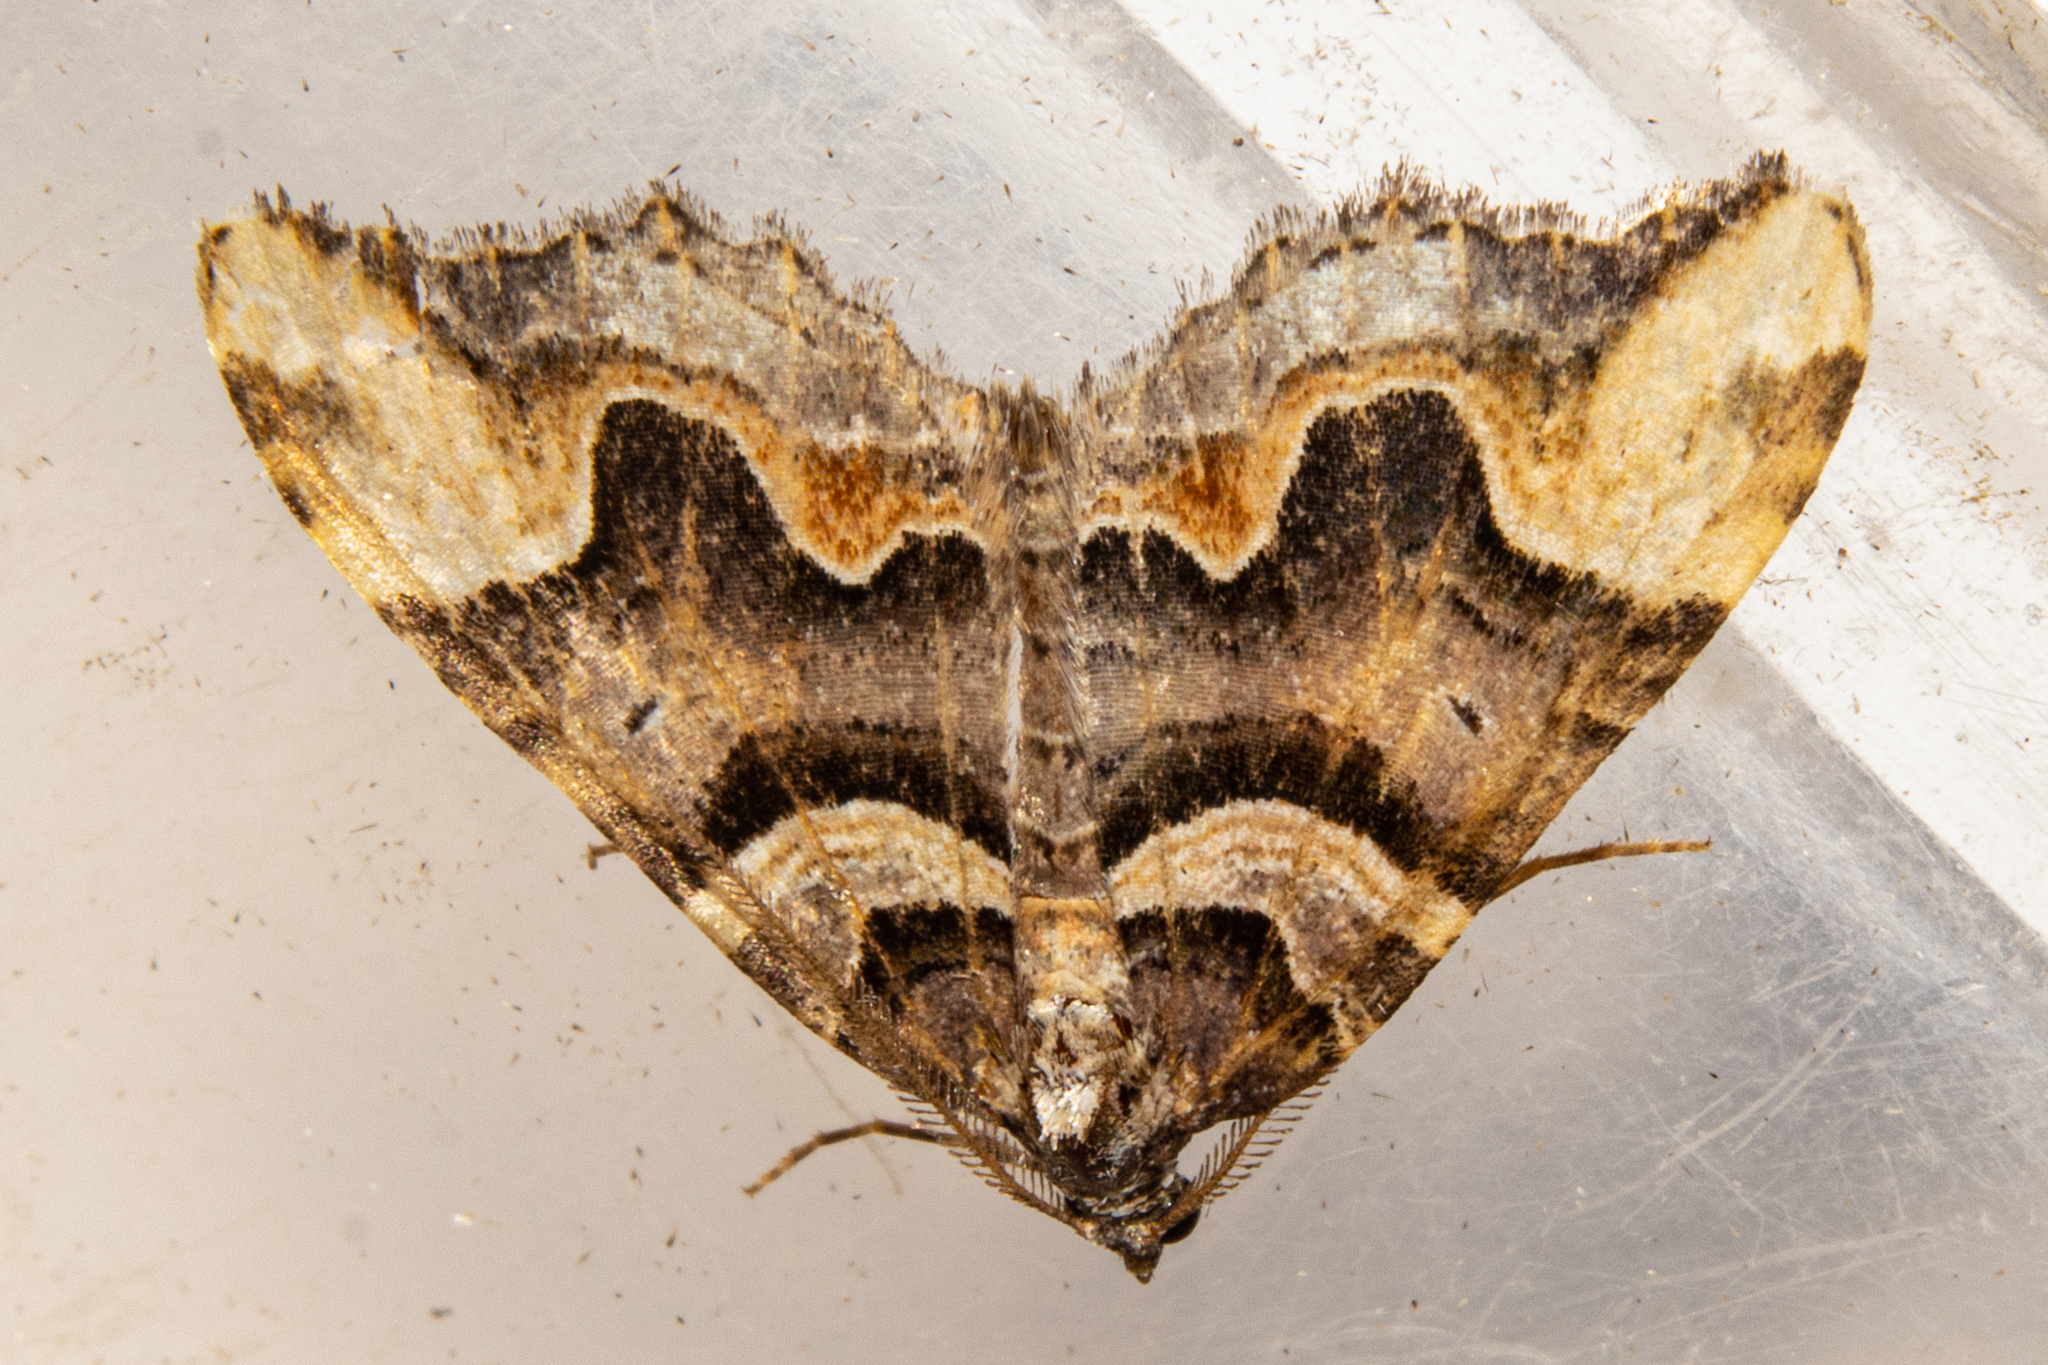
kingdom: Animalia
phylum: Arthropoda
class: Insecta
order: Lepidoptera
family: Geometridae
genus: Asaphodes
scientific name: Asaphodes chlamydota
